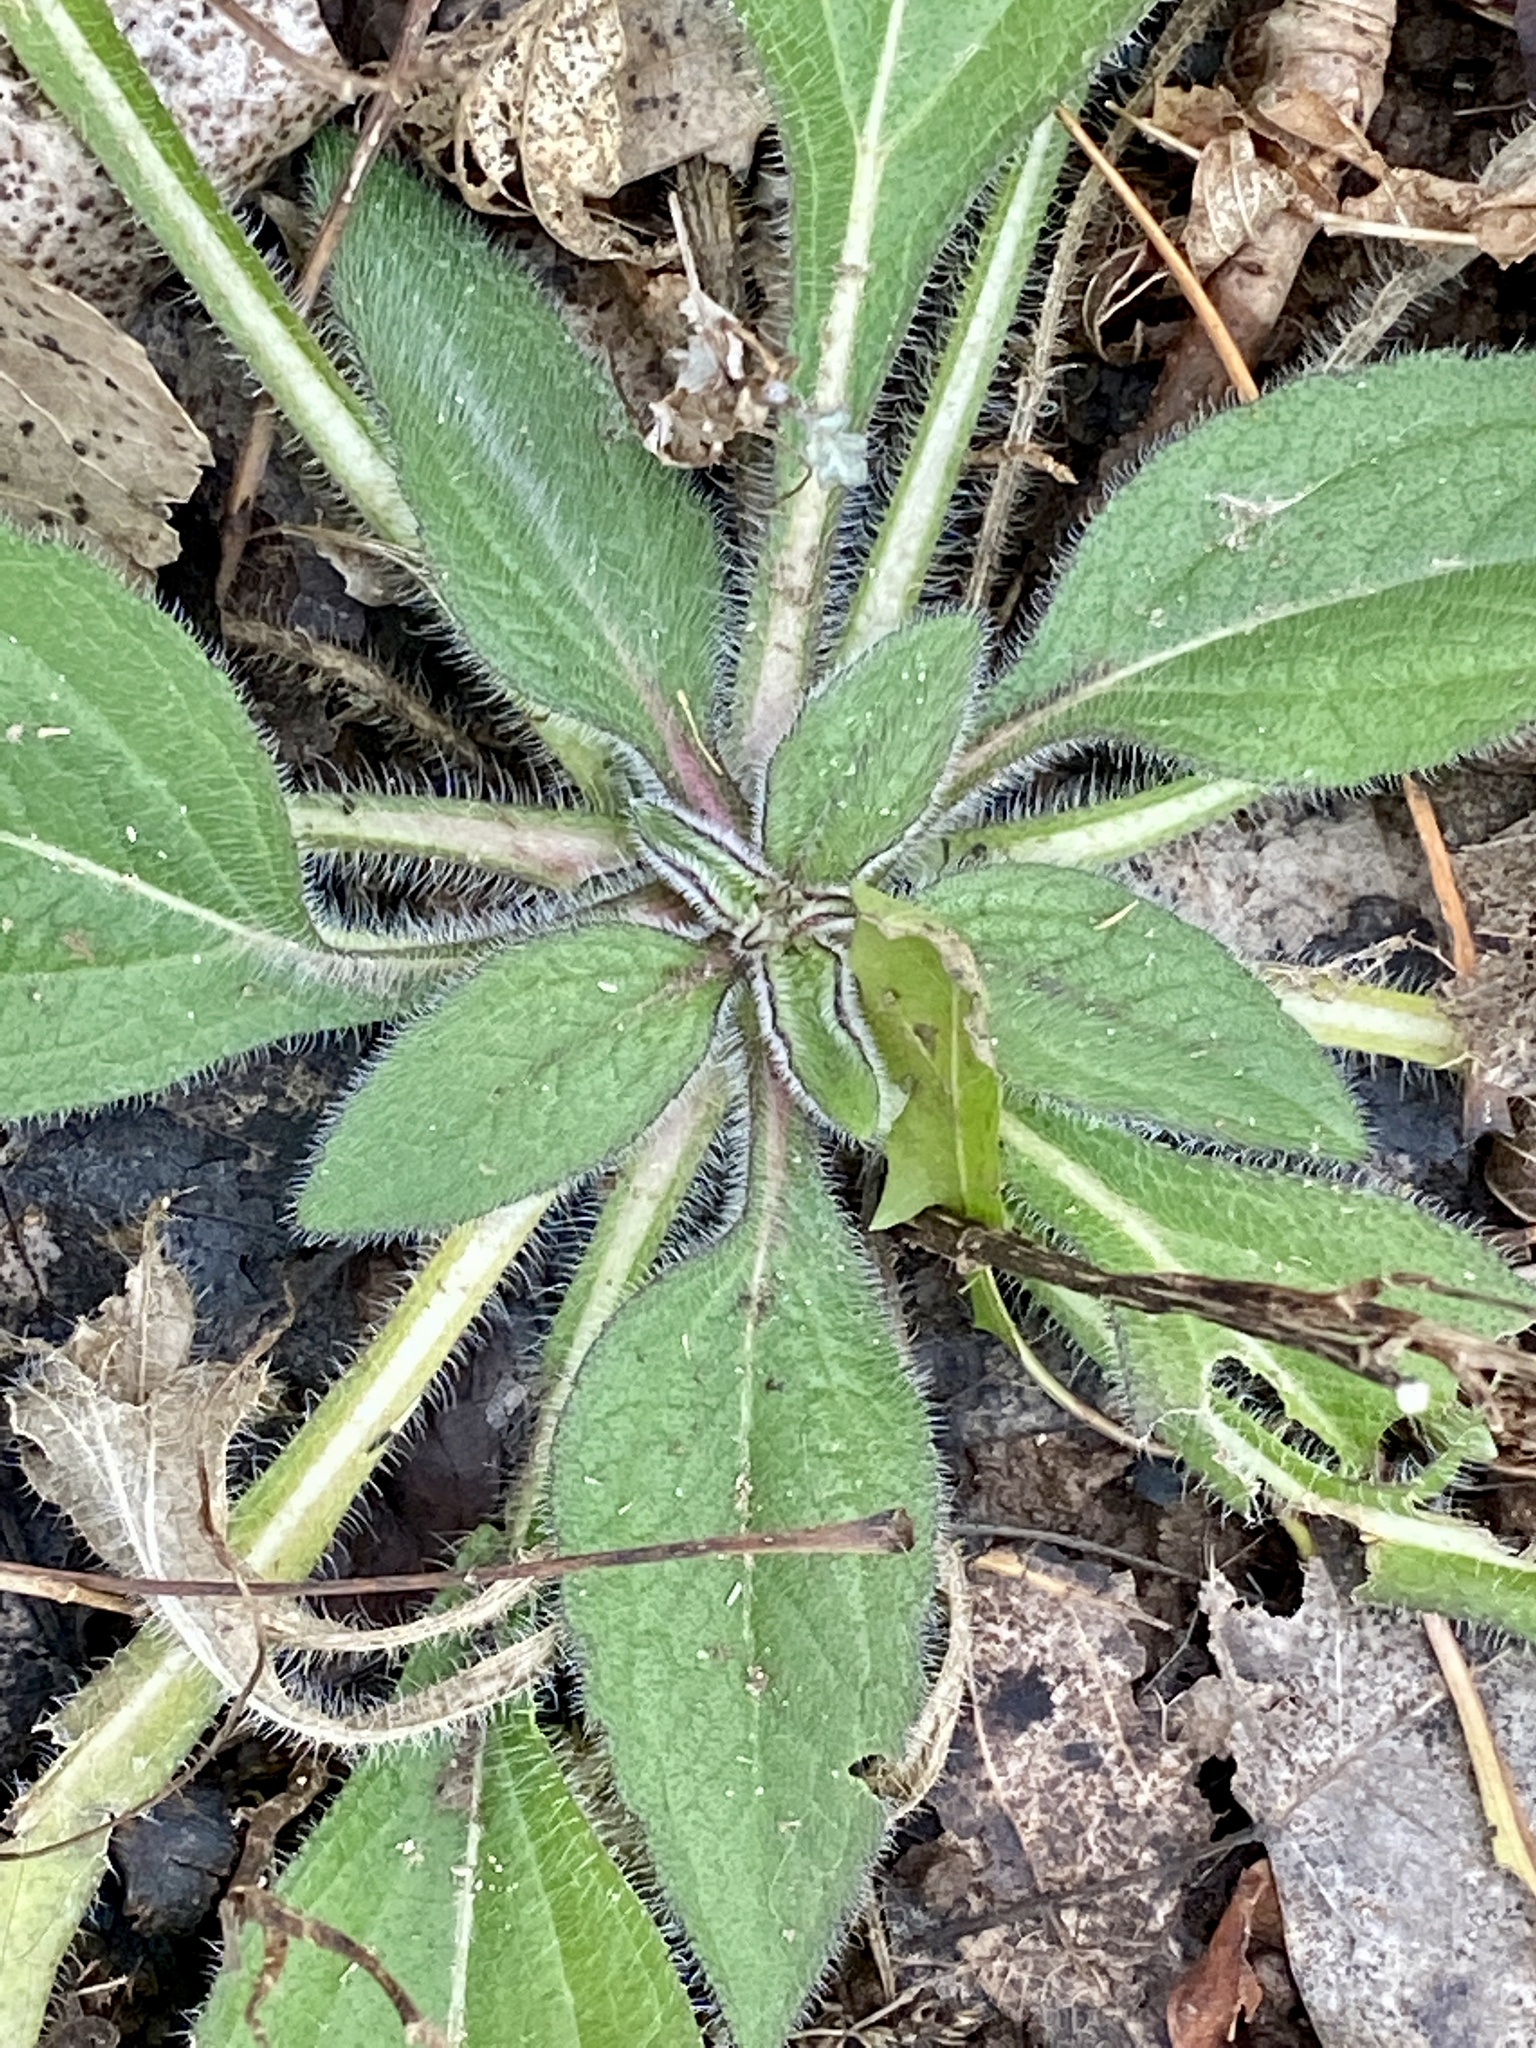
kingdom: Plantae
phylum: Tracheophyta
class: Magnoliopsida
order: Asterales
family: Asteraceae
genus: Rudbeckia
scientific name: Rudbeckia hirta
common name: Black-eyed-susan
